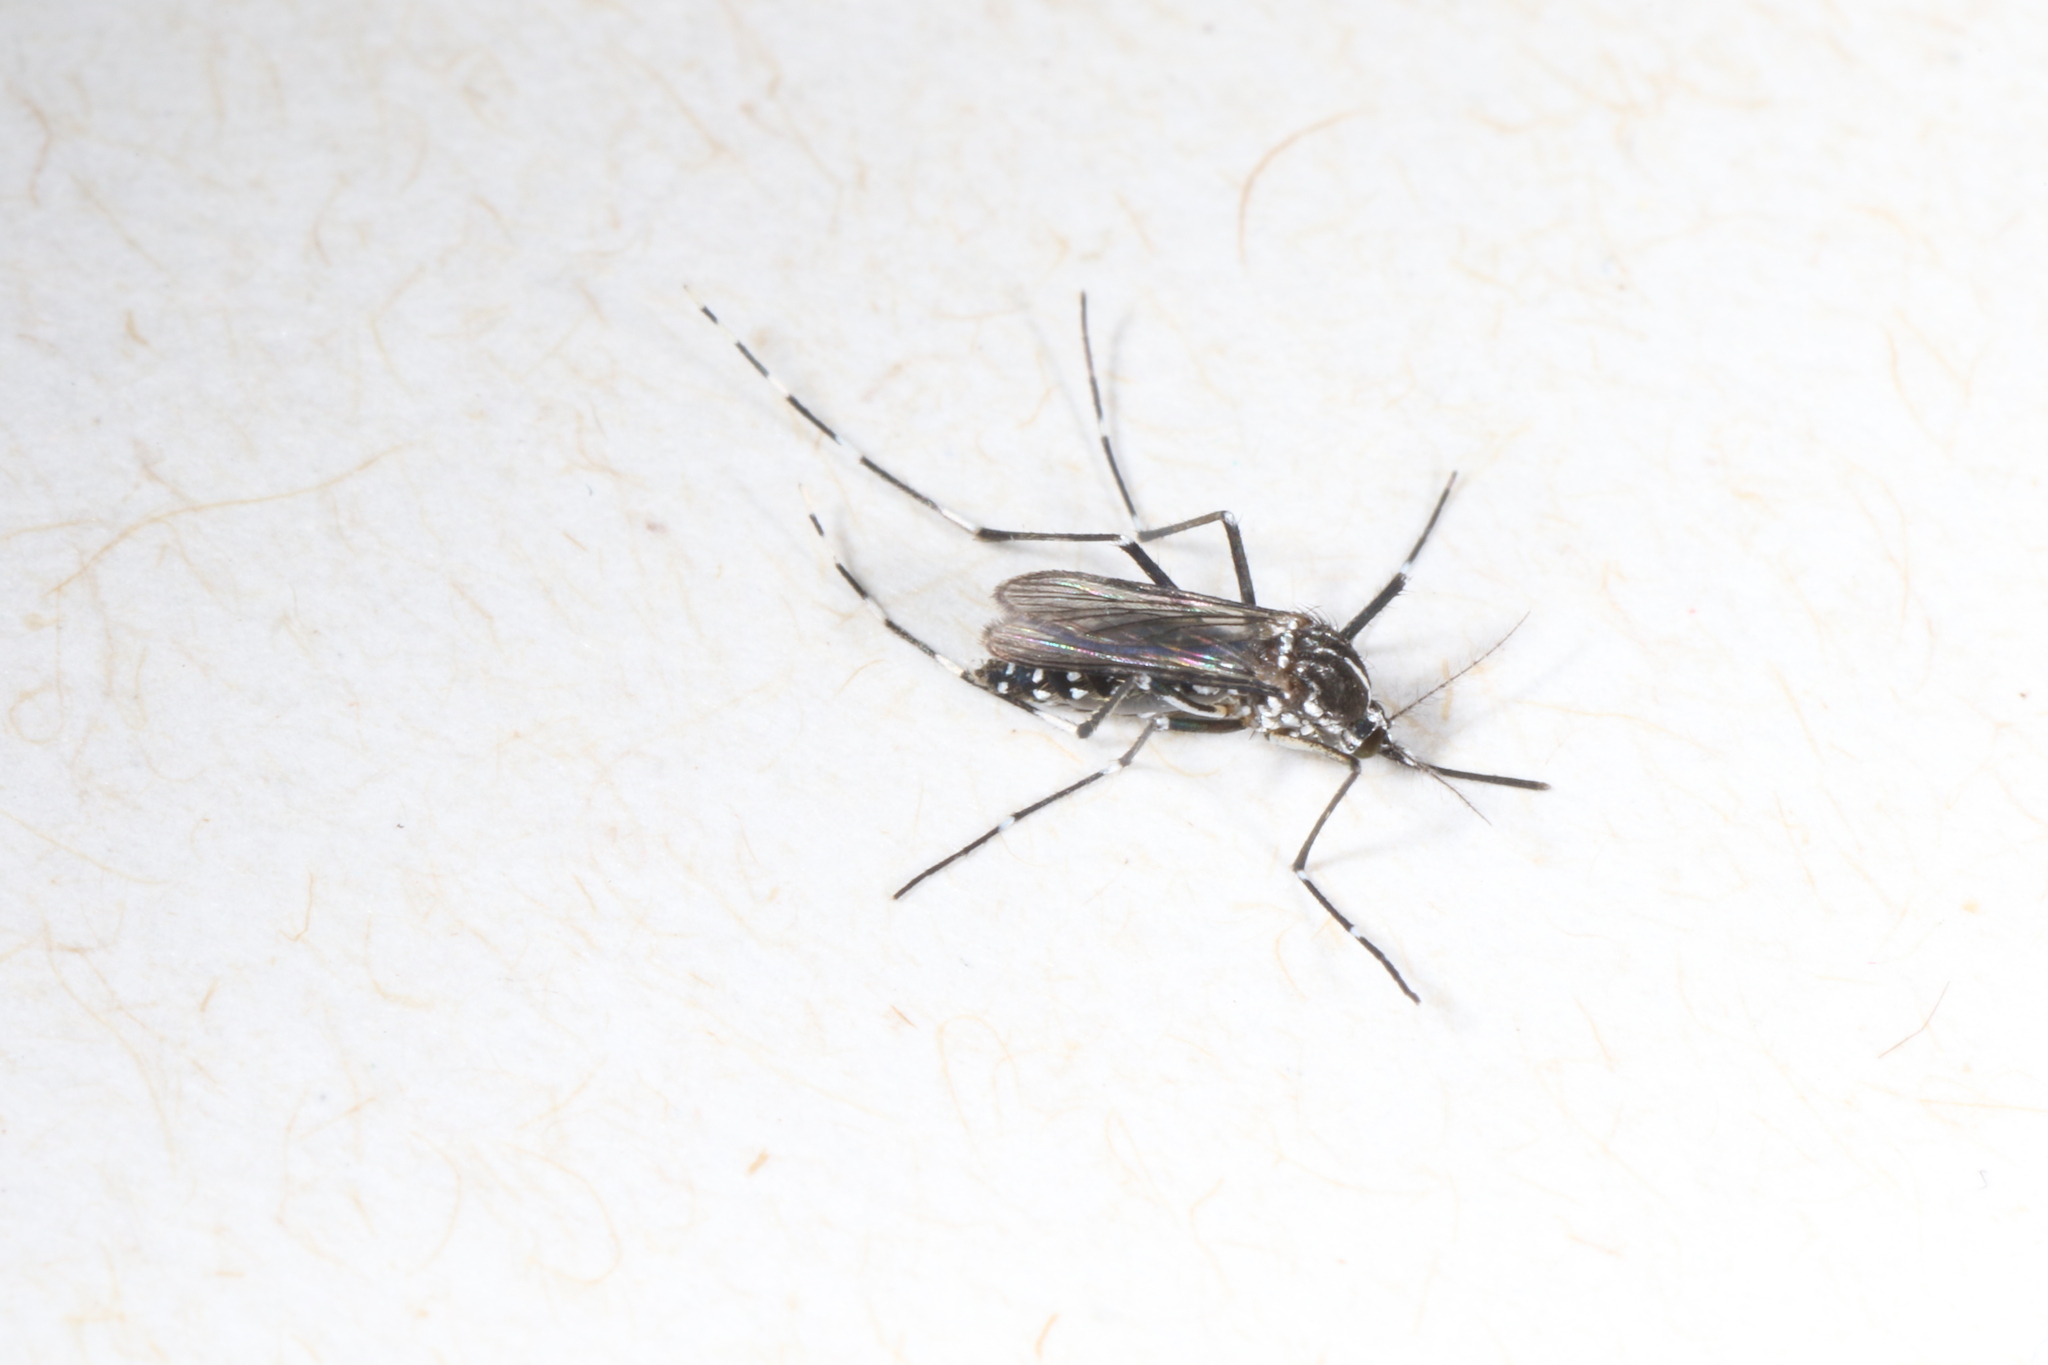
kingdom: Animalia
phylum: Arthropoda
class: Insecta
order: Diptera
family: Culicidae
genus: Aedes
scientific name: Aedes albopictus
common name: Tiger mosquito
